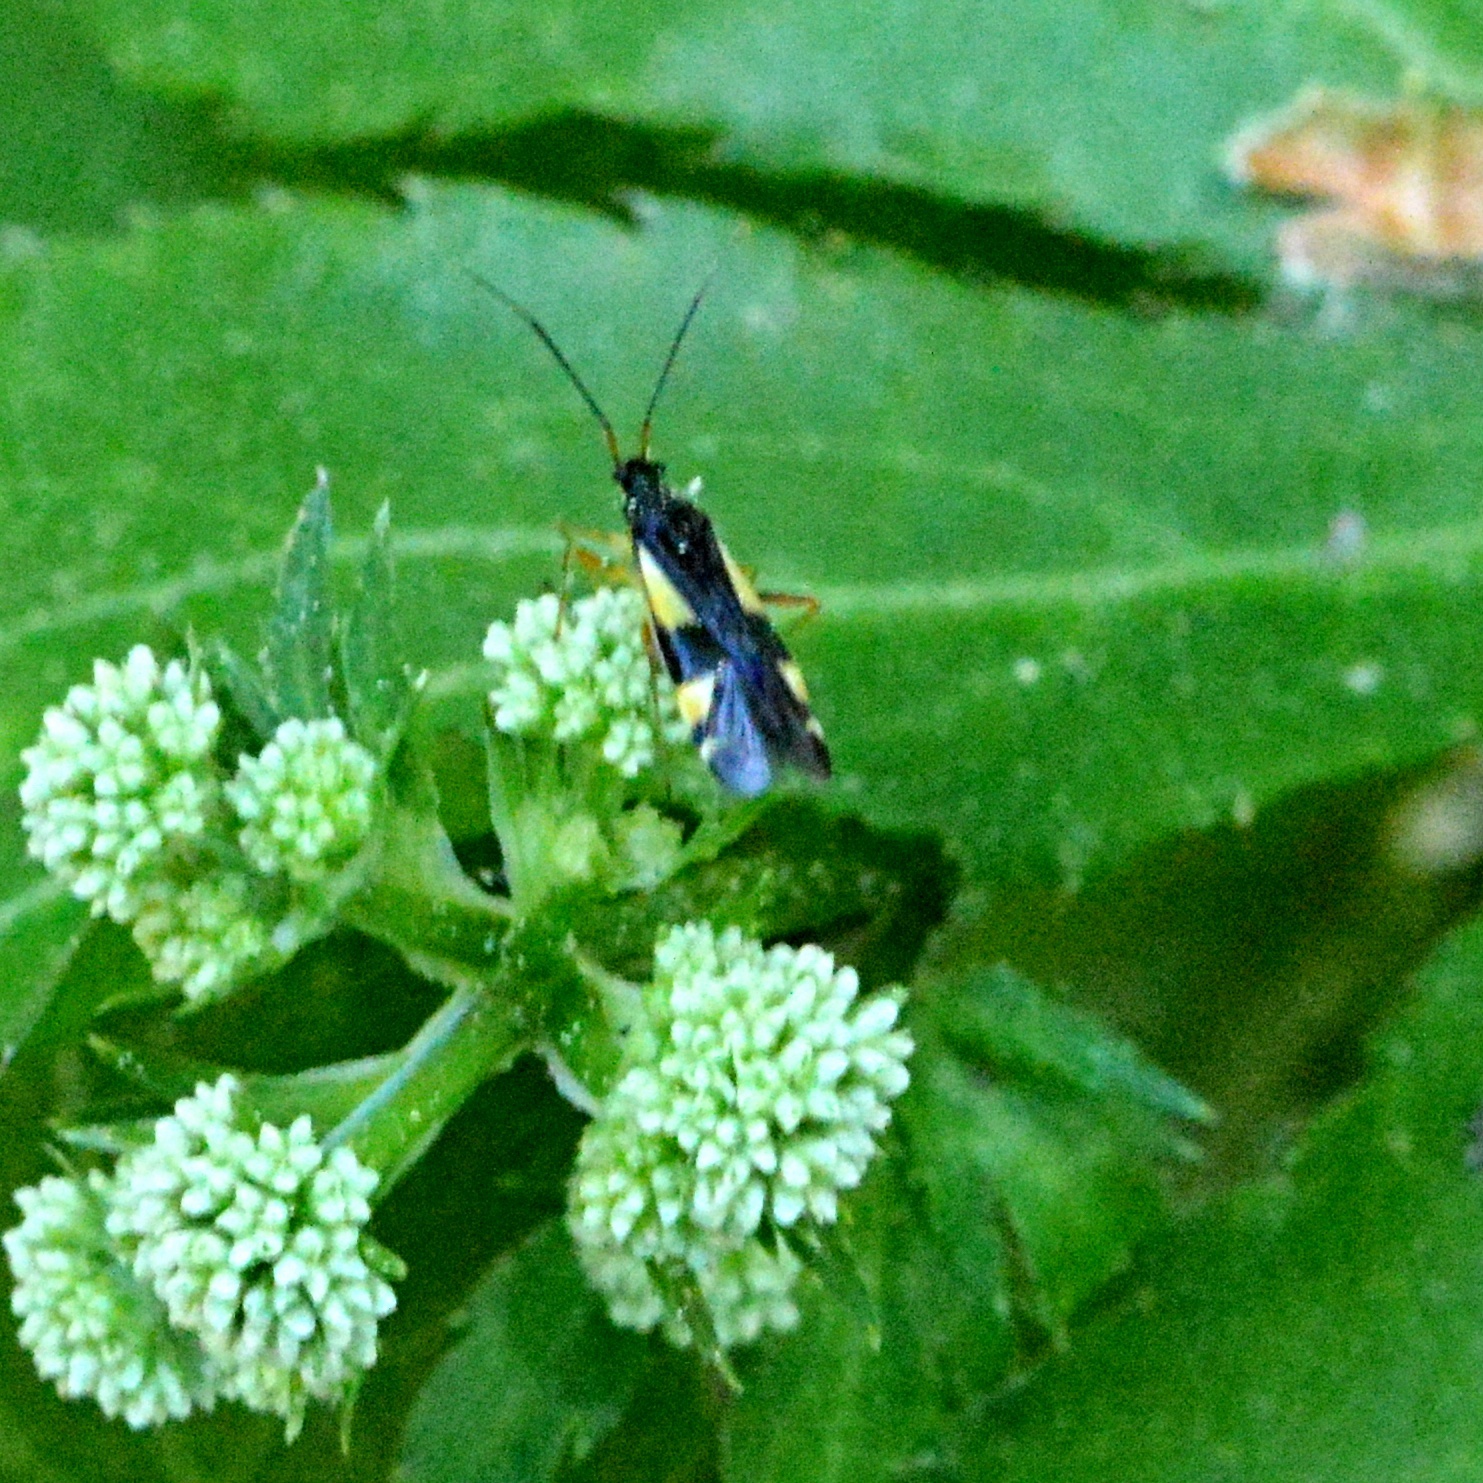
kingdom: Animalia
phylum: Arthropoda
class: Insecta
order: Hemiptera
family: Miridae
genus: Dryophilocoris
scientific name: Dryophilocoris flavoquadrimaculatus
